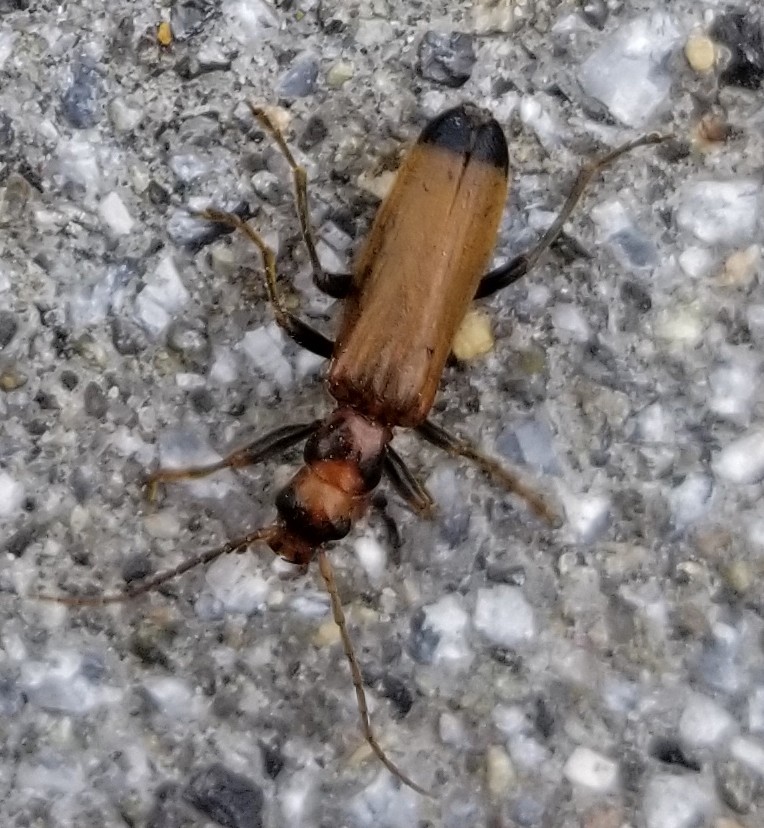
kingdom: Animalia
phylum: Arthropoda
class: Insecta
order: Coleoptera
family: Oedemeridae
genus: Nacerdes
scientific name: Nacerdes melanura
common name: Wharf borer
